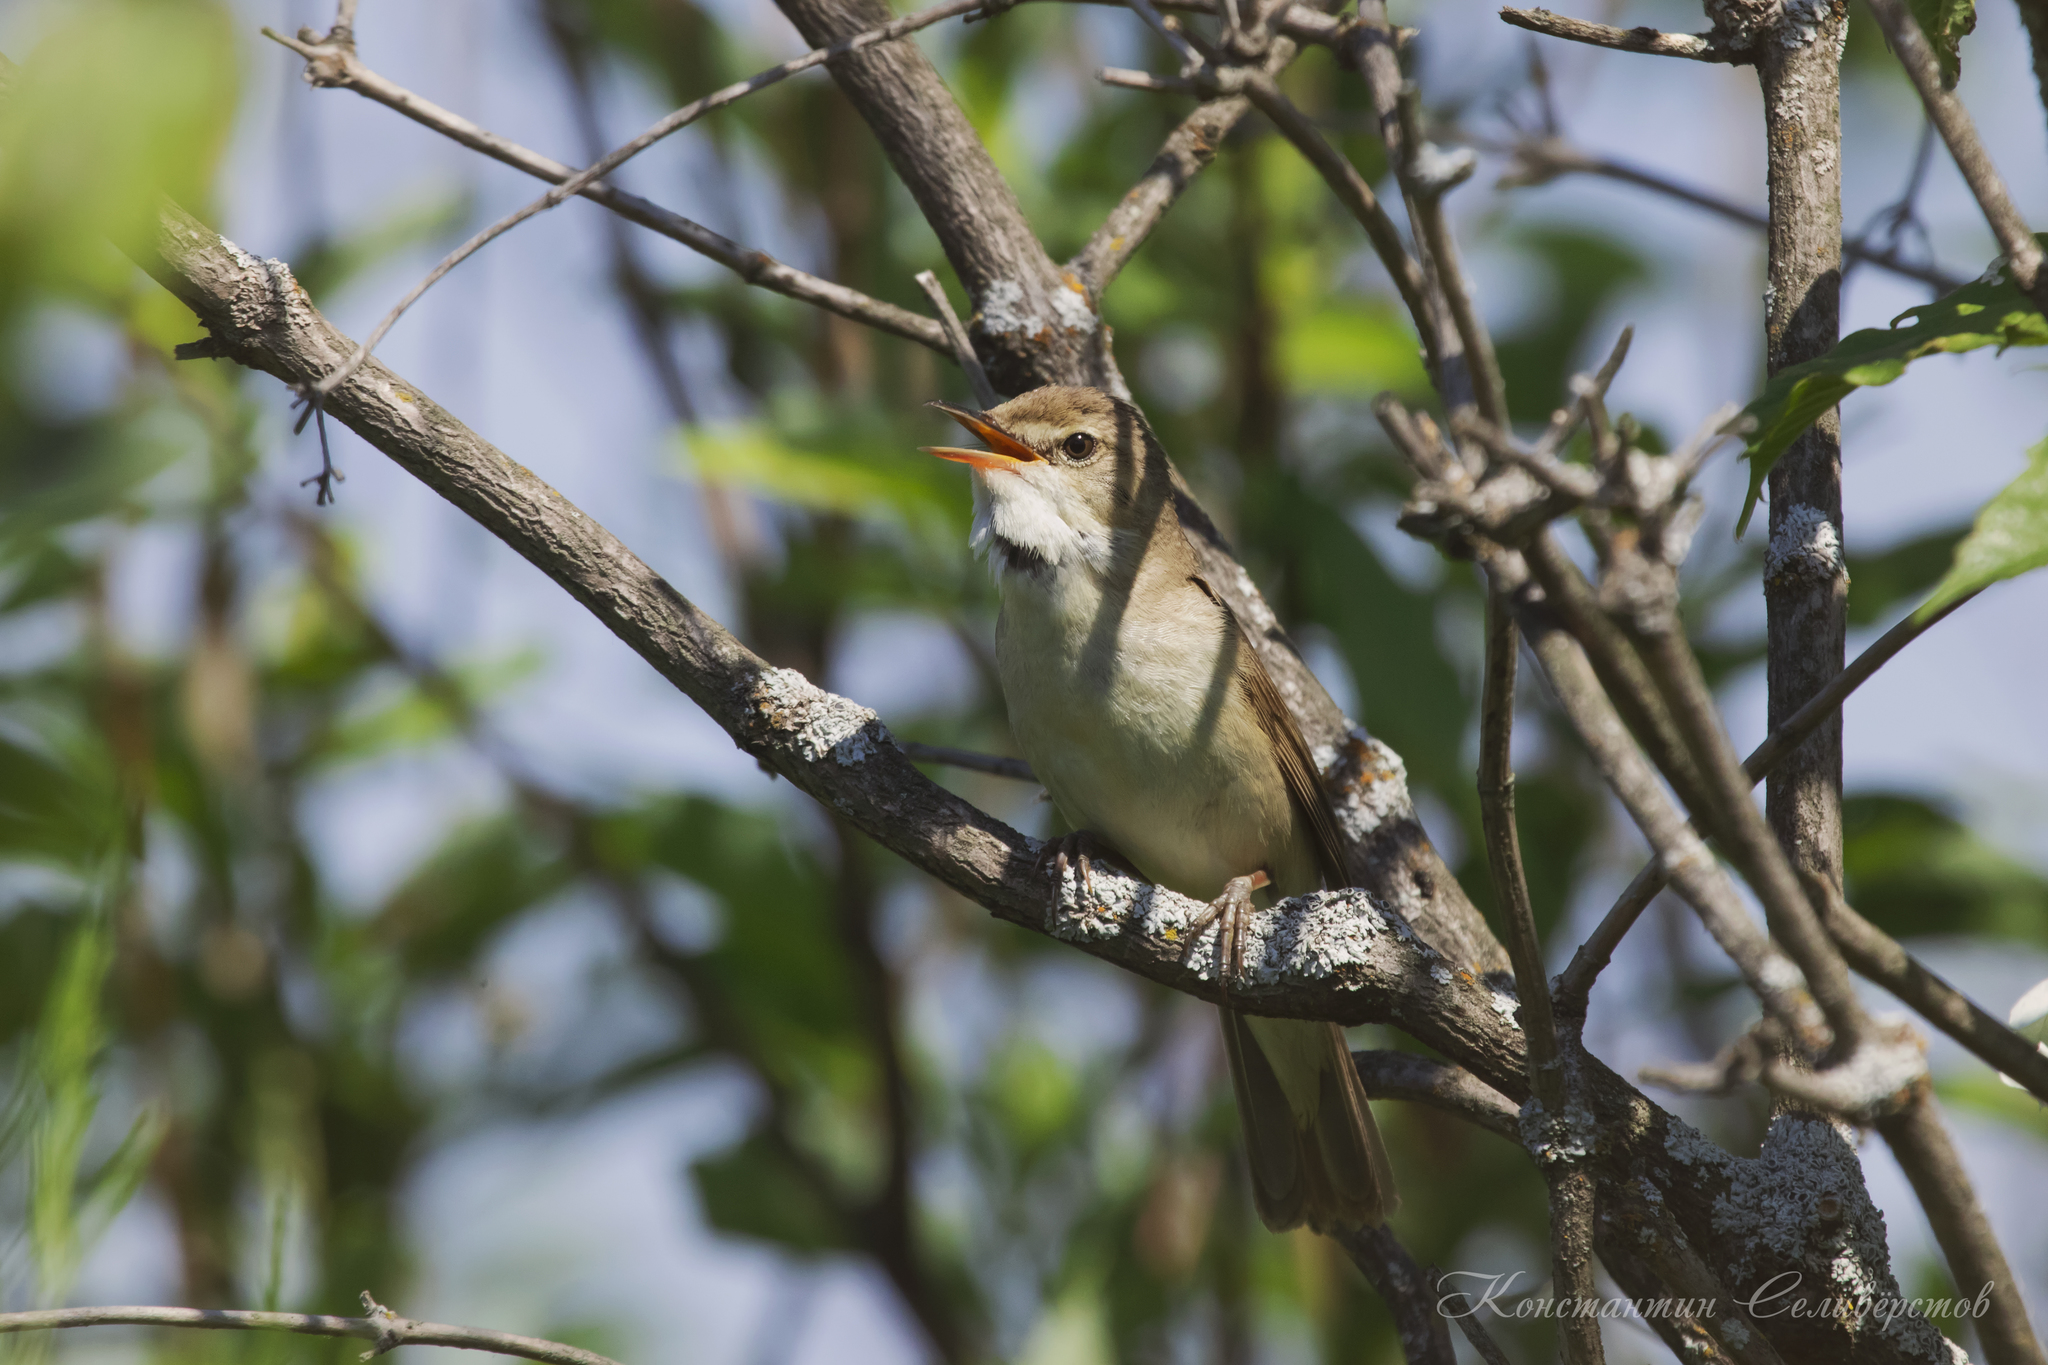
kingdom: Animalia
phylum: Chordata
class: Aves
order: Passeriformes
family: Acrocephalidae
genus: Acrocephalus
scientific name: Acrocephalus dumetorum
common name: Blyth's reed warbler
